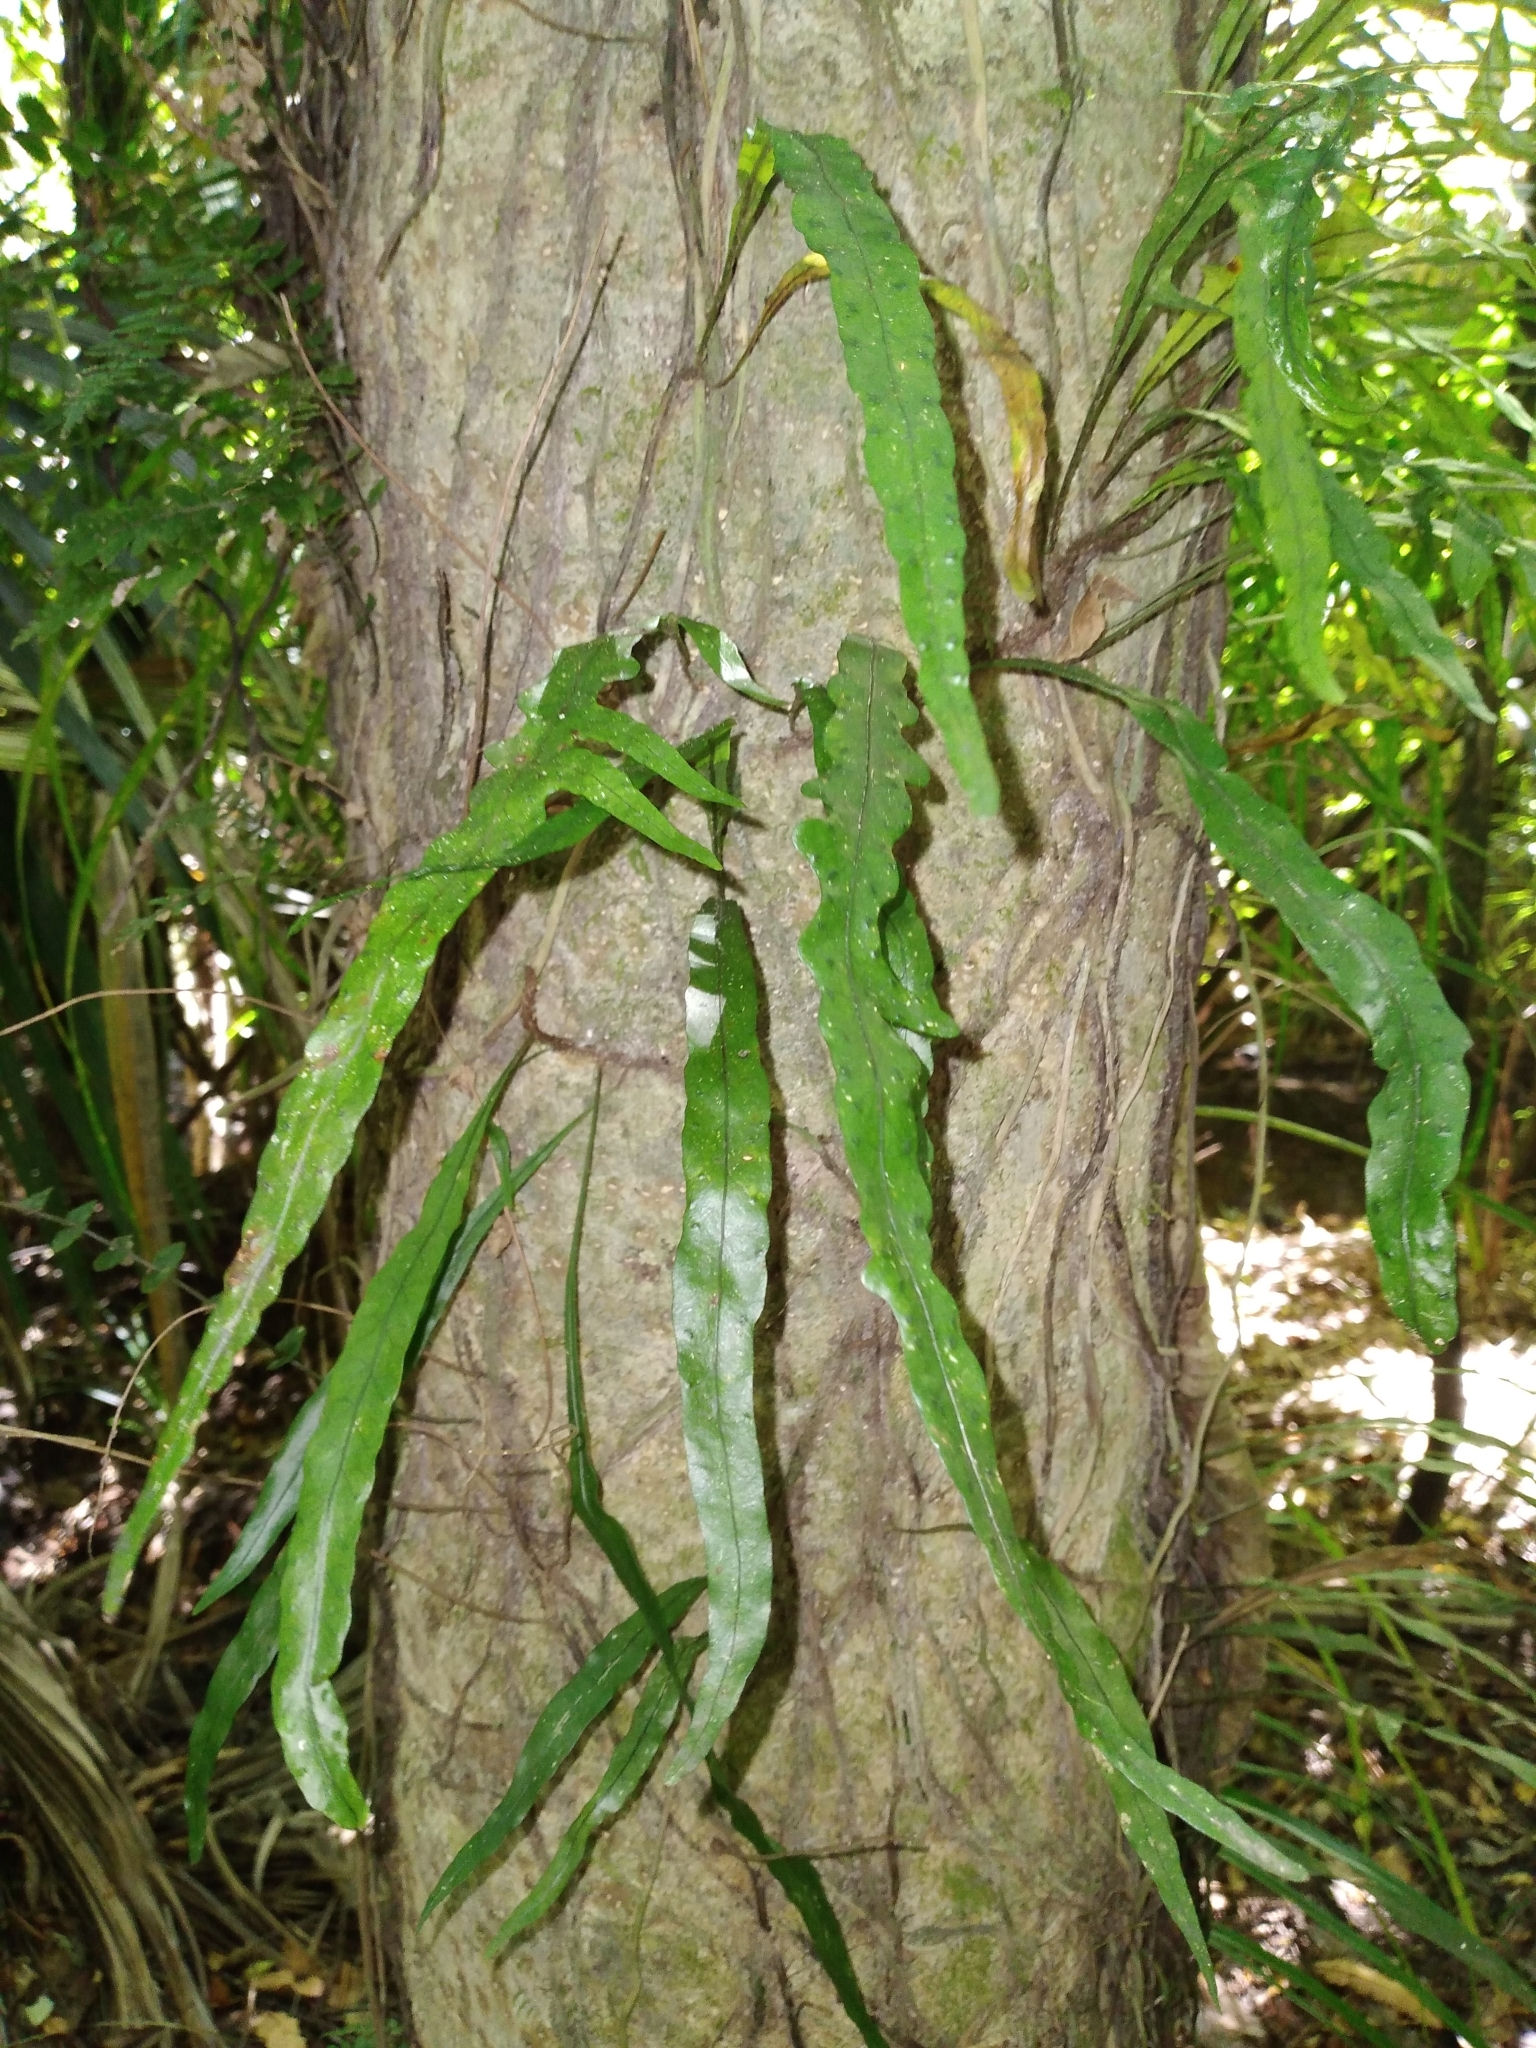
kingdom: Plantae
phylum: Tracheophyta
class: Polypodiopsida
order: Polypodiales
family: Polypodiaceae
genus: Lecanopteris
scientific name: Lecanopteris scandens
